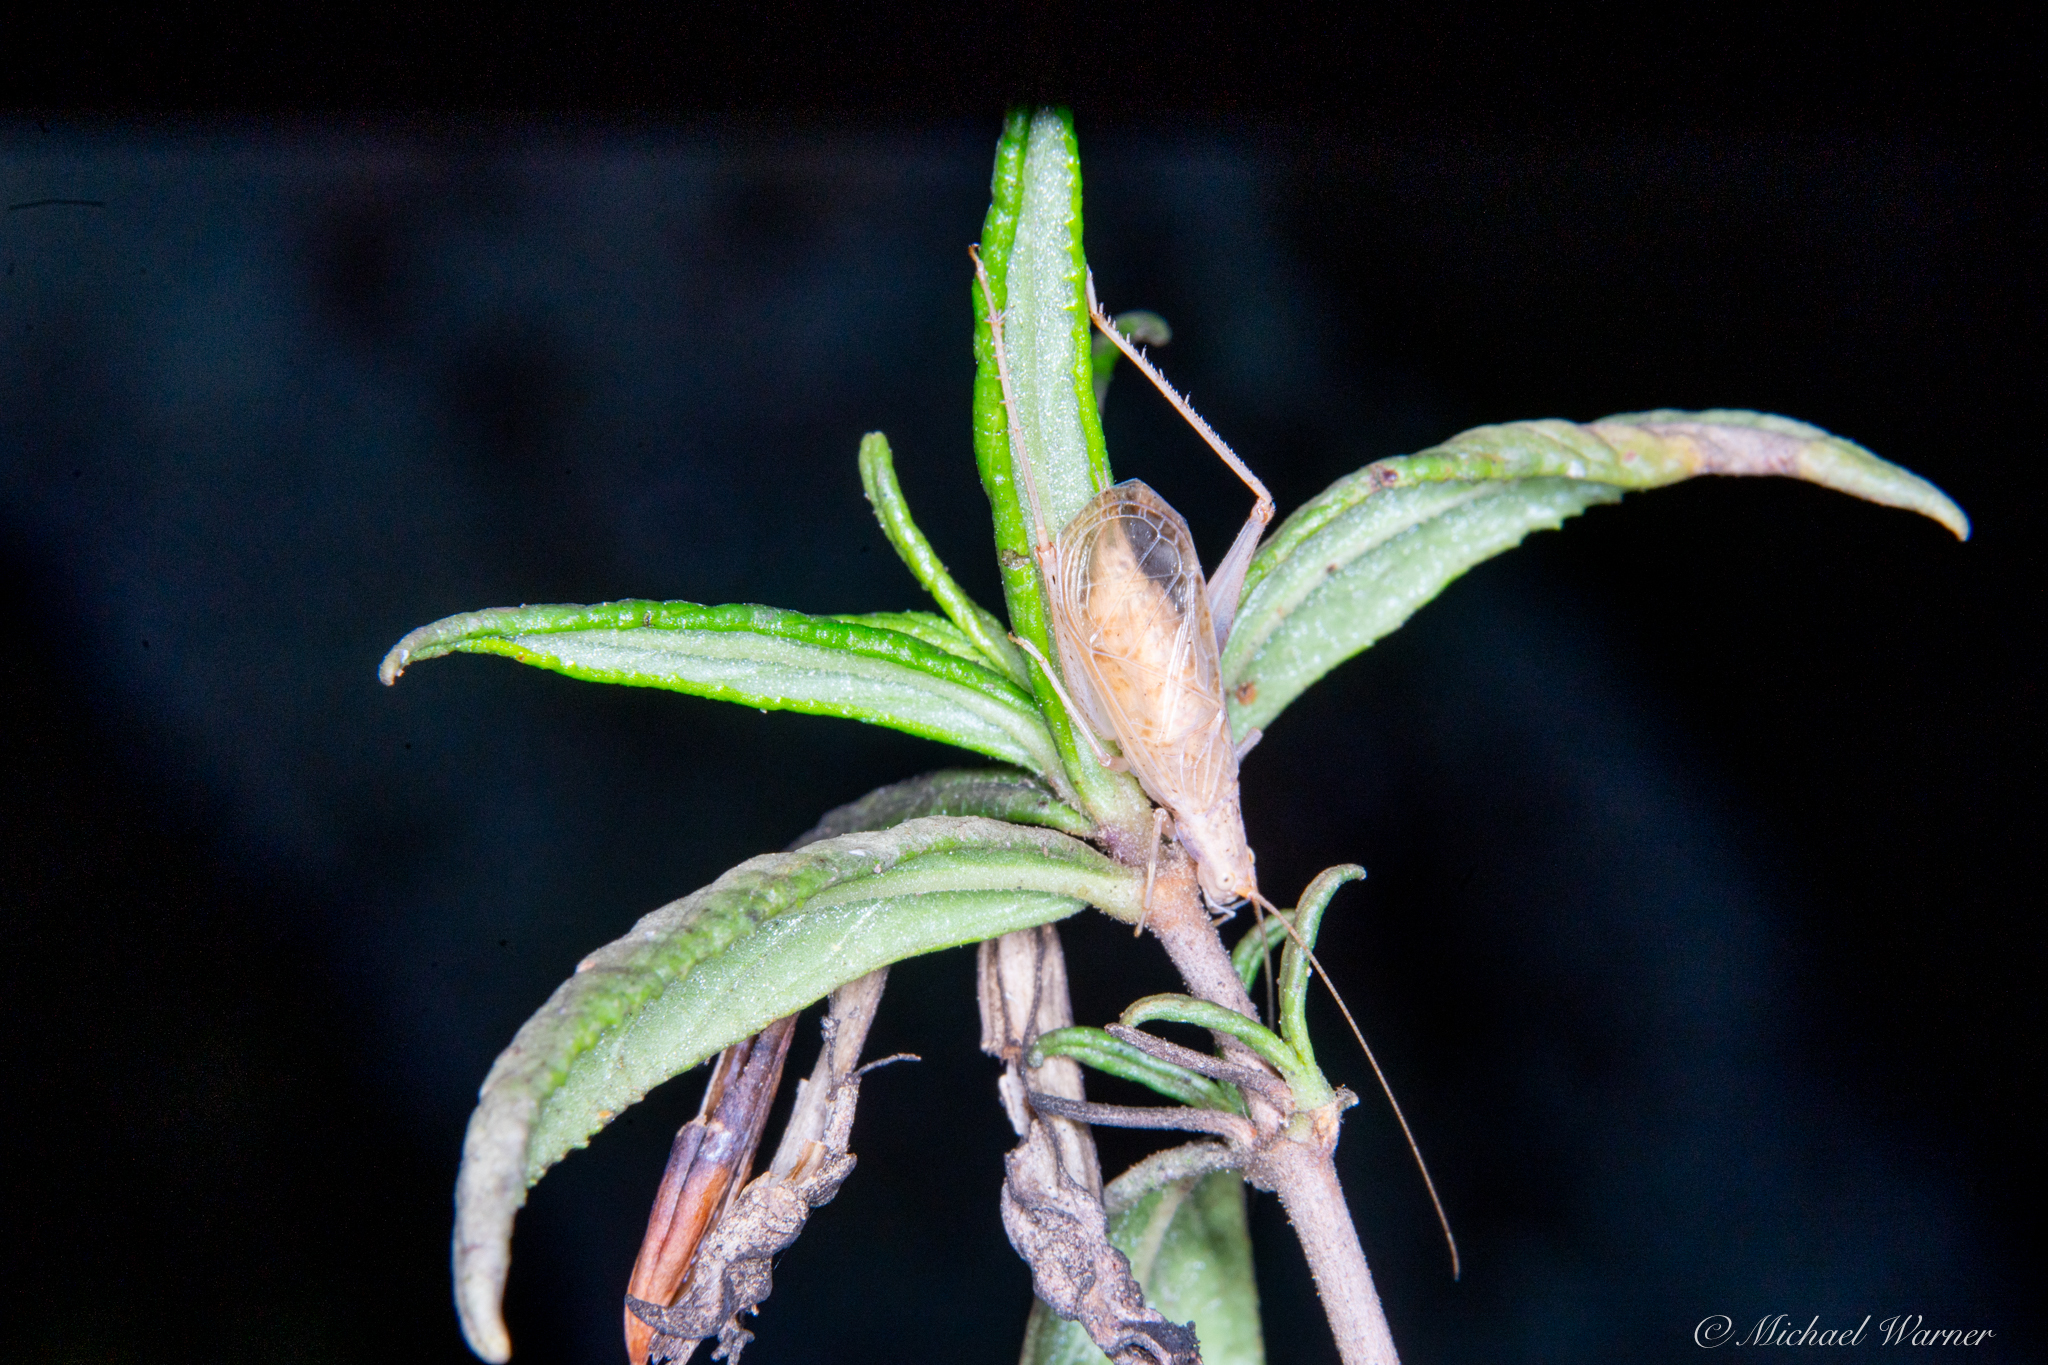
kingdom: Animalia
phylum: Arthropoda
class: Insecta
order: Orthoptera
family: Gryllidae
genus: Oecanthus
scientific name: Oecanthus californicus
